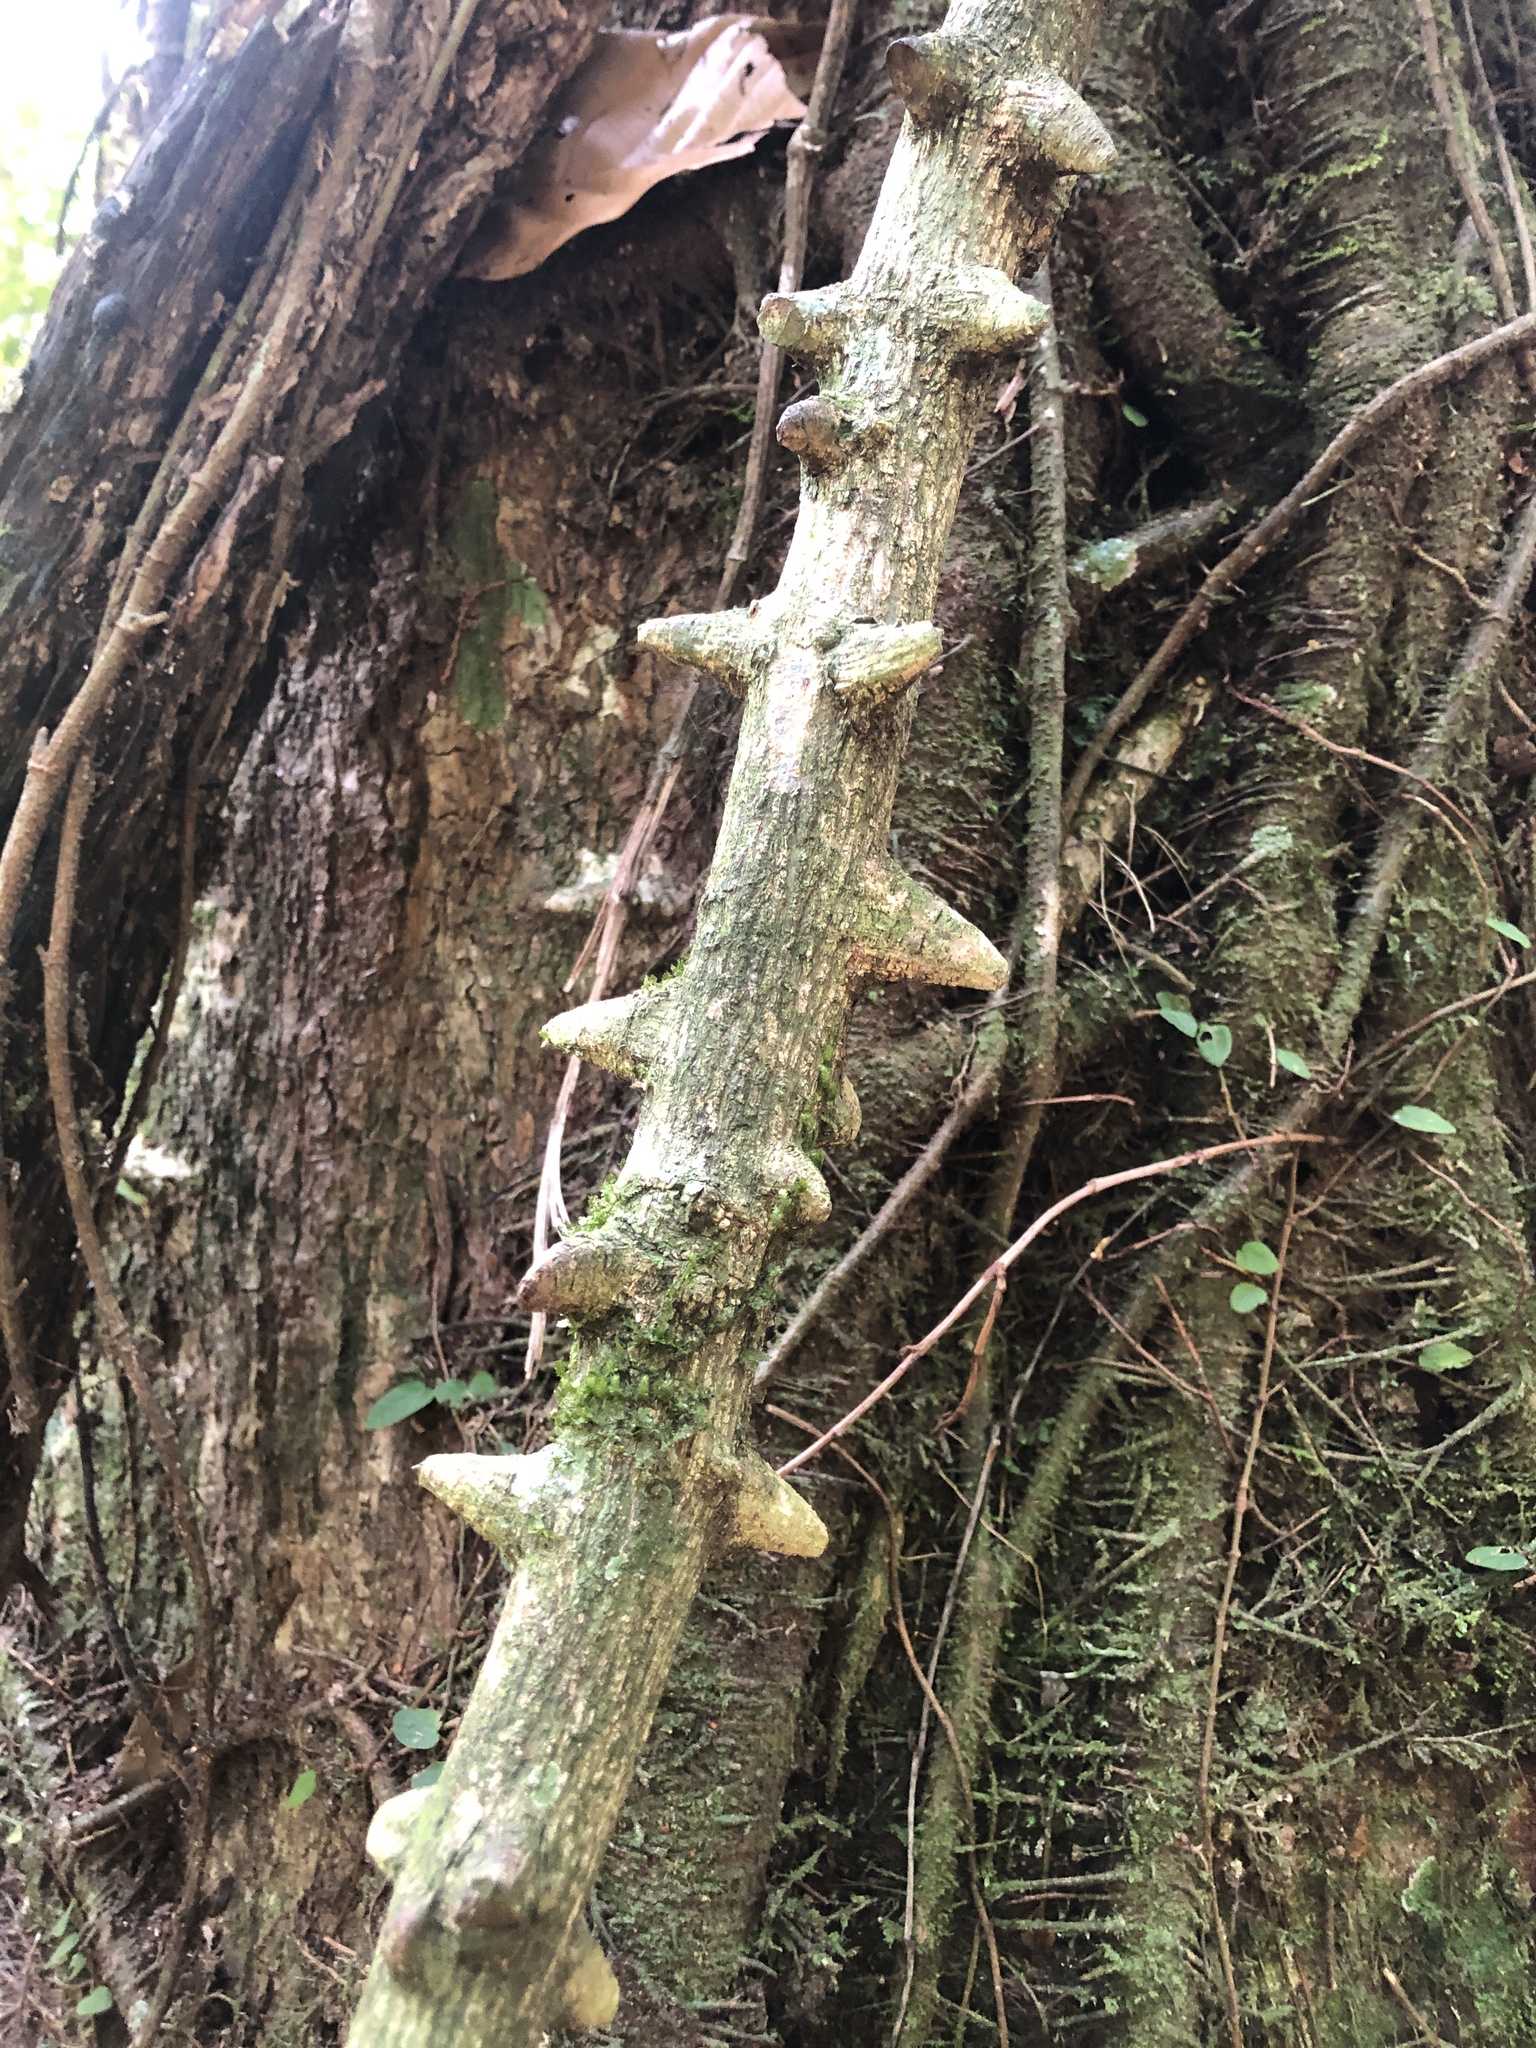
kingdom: Plantae
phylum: Tracheophyta
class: Magnoliopsida
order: Sapindales
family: Rutaceae
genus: Zanthoxylum
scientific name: Zanthoxylum asiaticum
